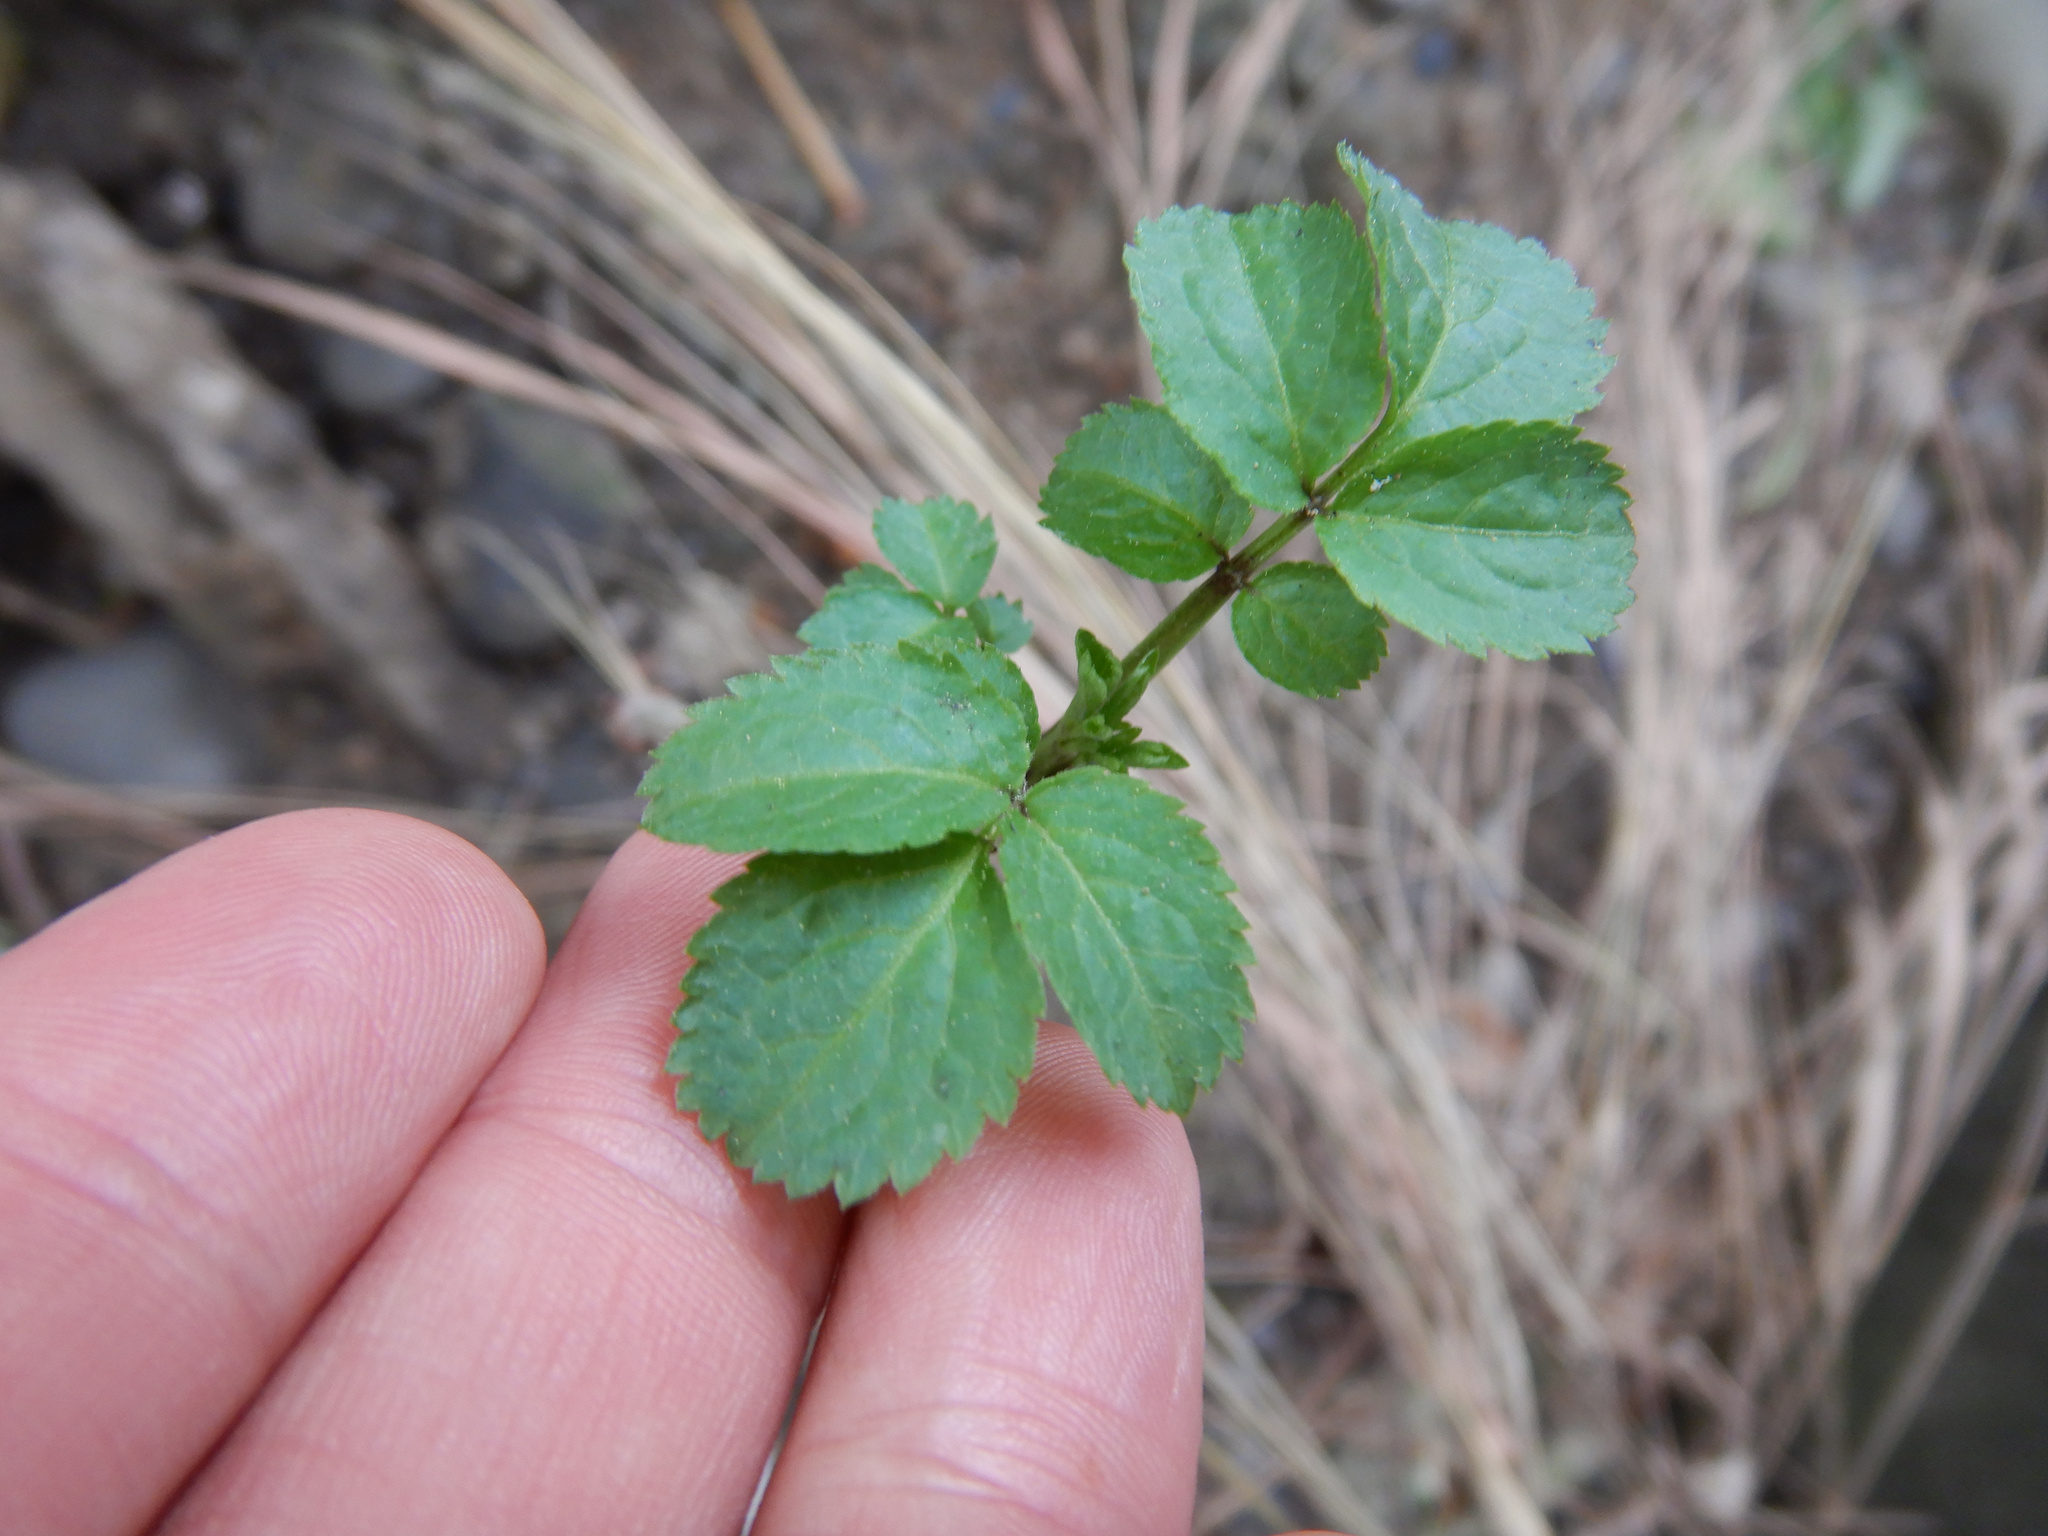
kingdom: Plantae
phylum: Tracheophyta
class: Magnoliopsida
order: Dipsacales
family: Viburnaceae
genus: Sambucus
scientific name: Sambucus nigra
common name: Elder
